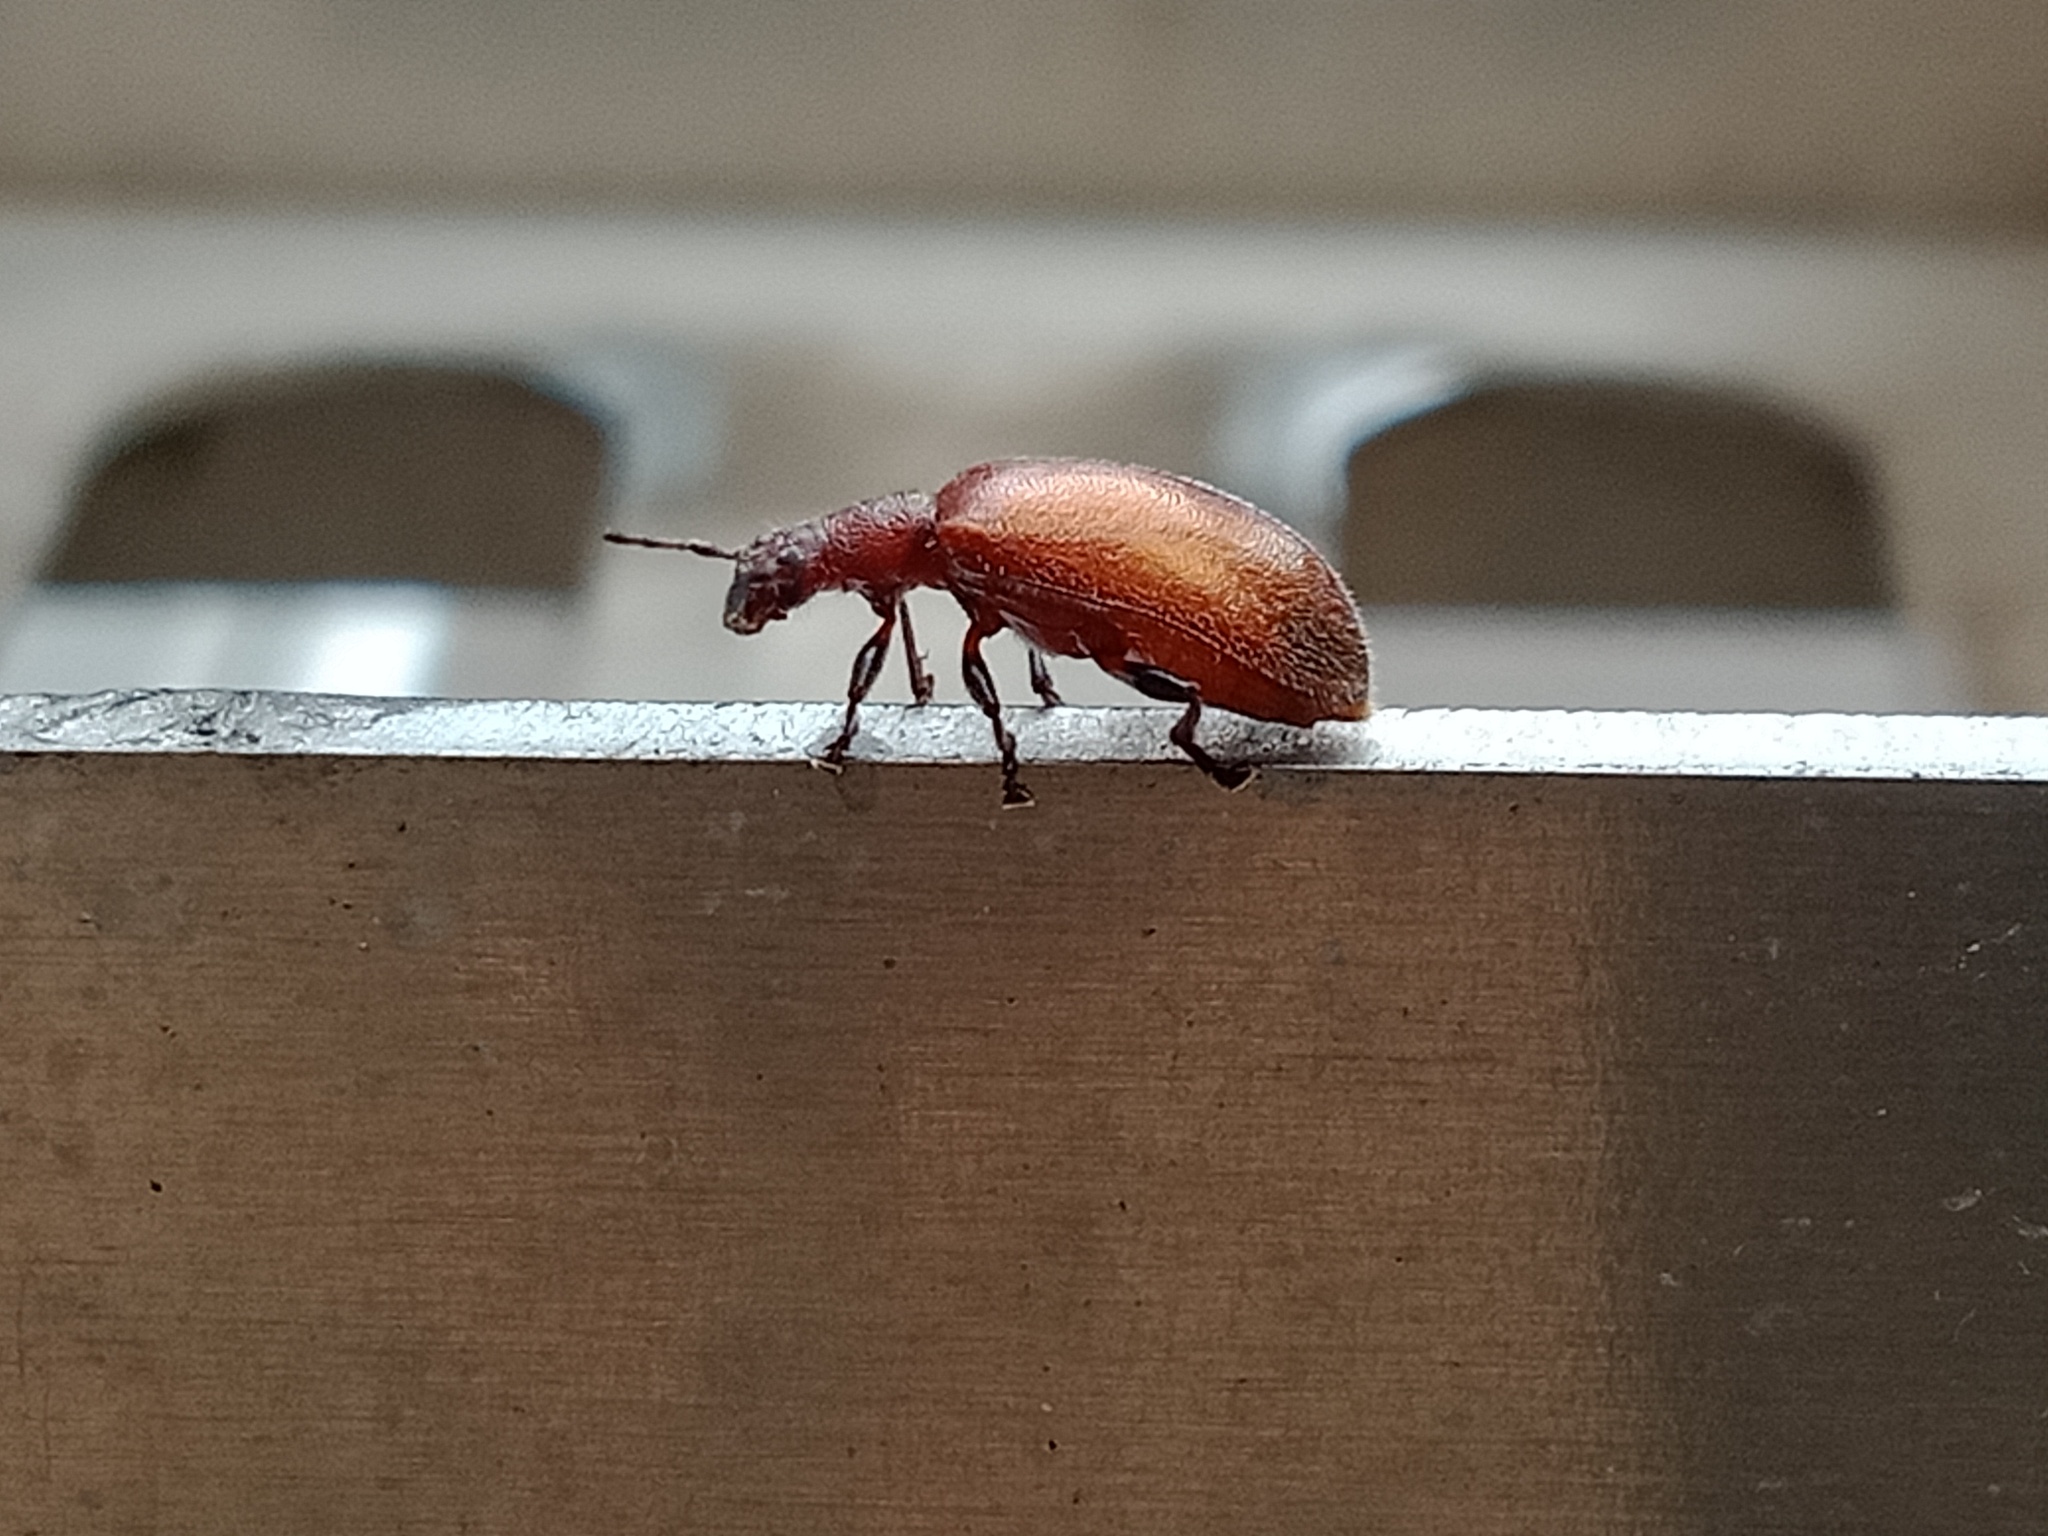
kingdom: Animalia
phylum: Arthropoda
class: Insecta
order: Coleoptera
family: Tenebrionidae
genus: Ecnolagria
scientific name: Ecnolagria
